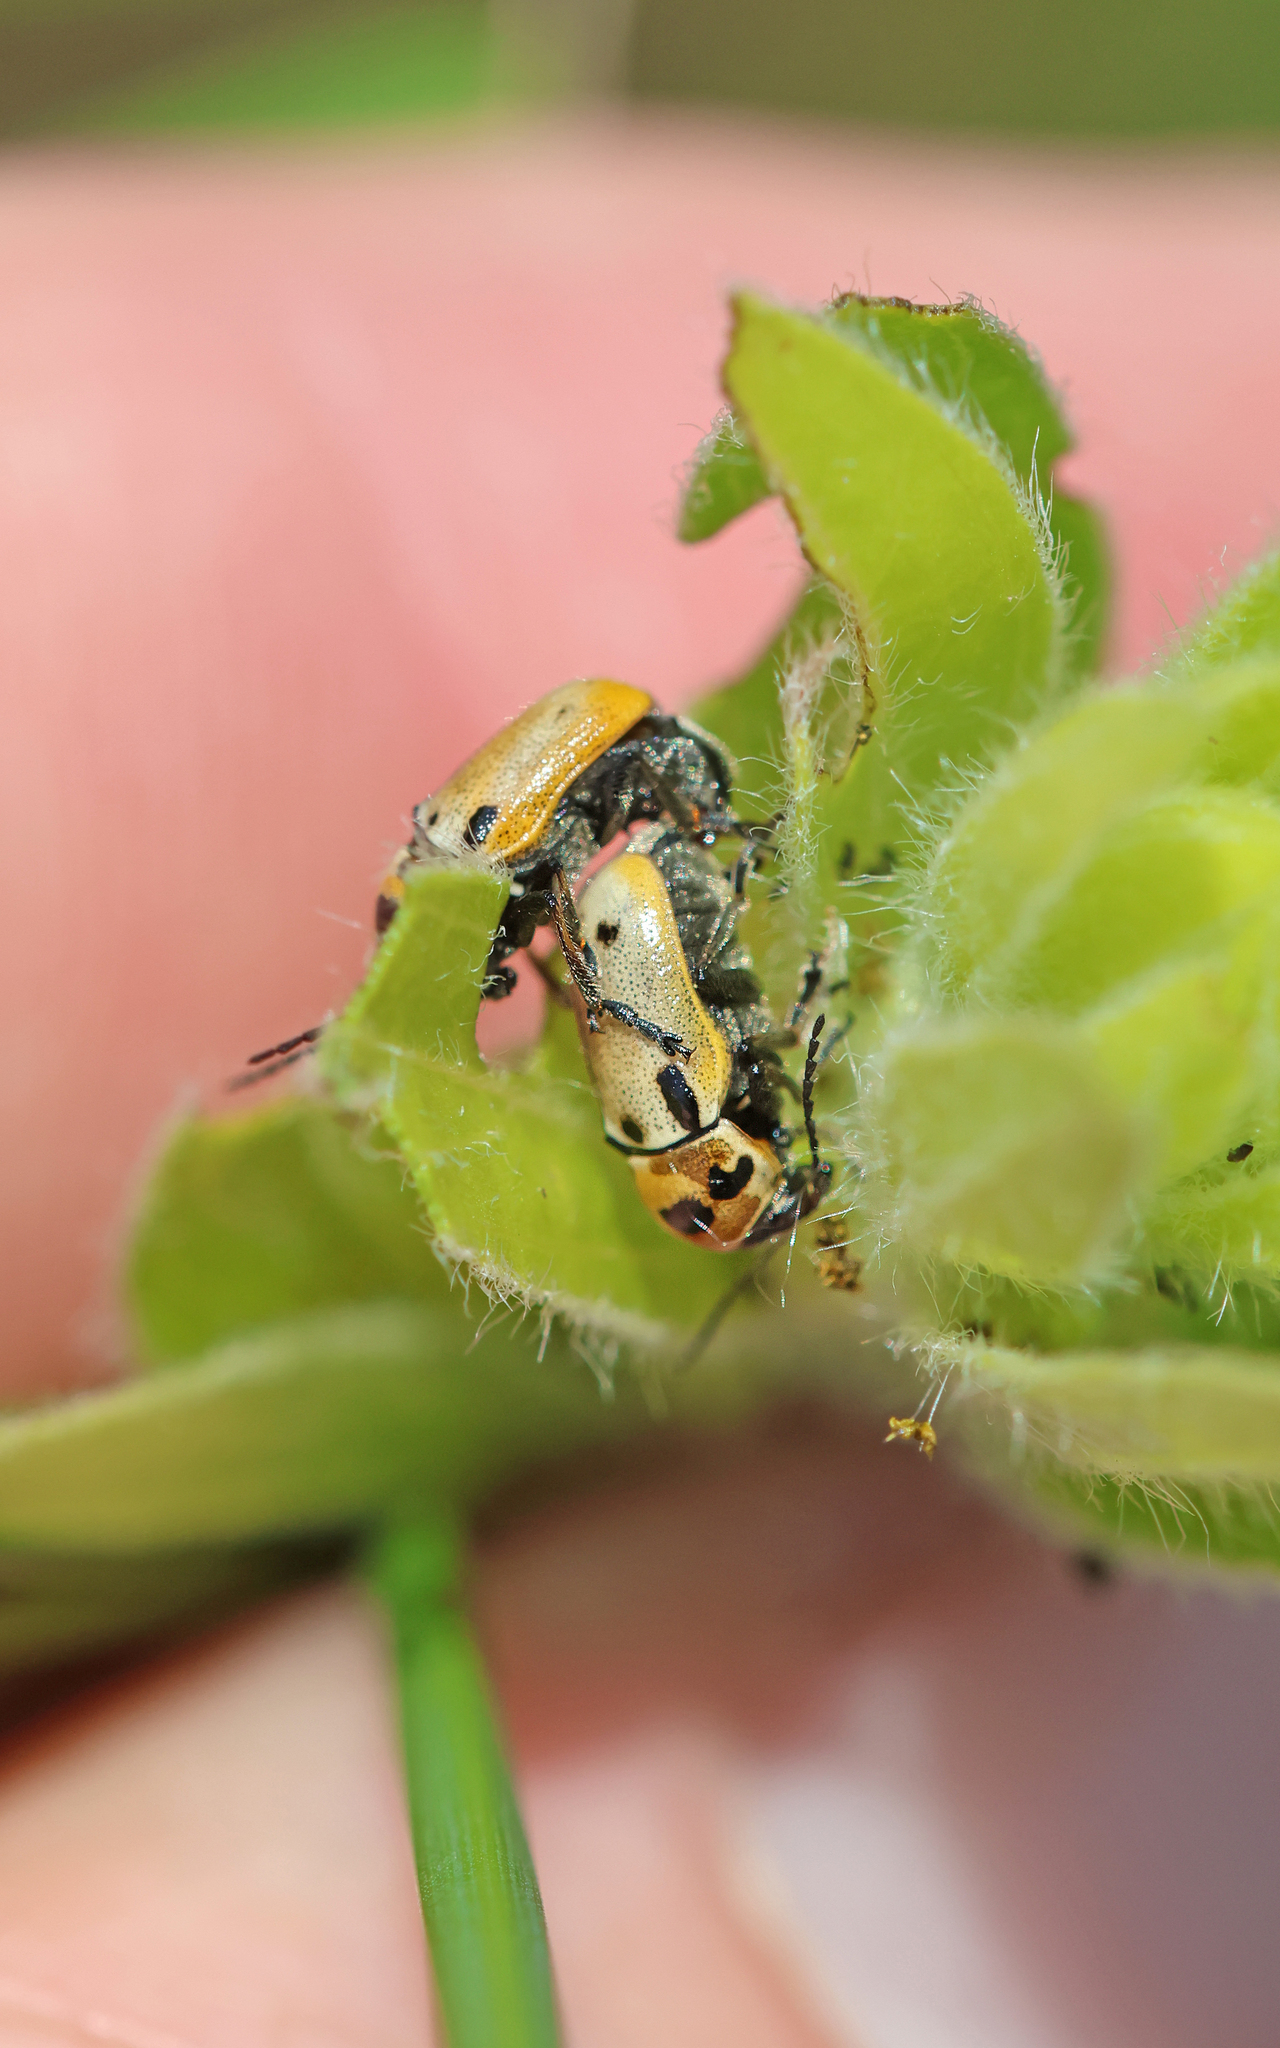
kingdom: Animalia
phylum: Arthropoda
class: Insecta
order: Coleoptera
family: Chrysomelidae
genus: Cryptocephalus
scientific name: Cryptocephalus quatuordecimmaculatus
